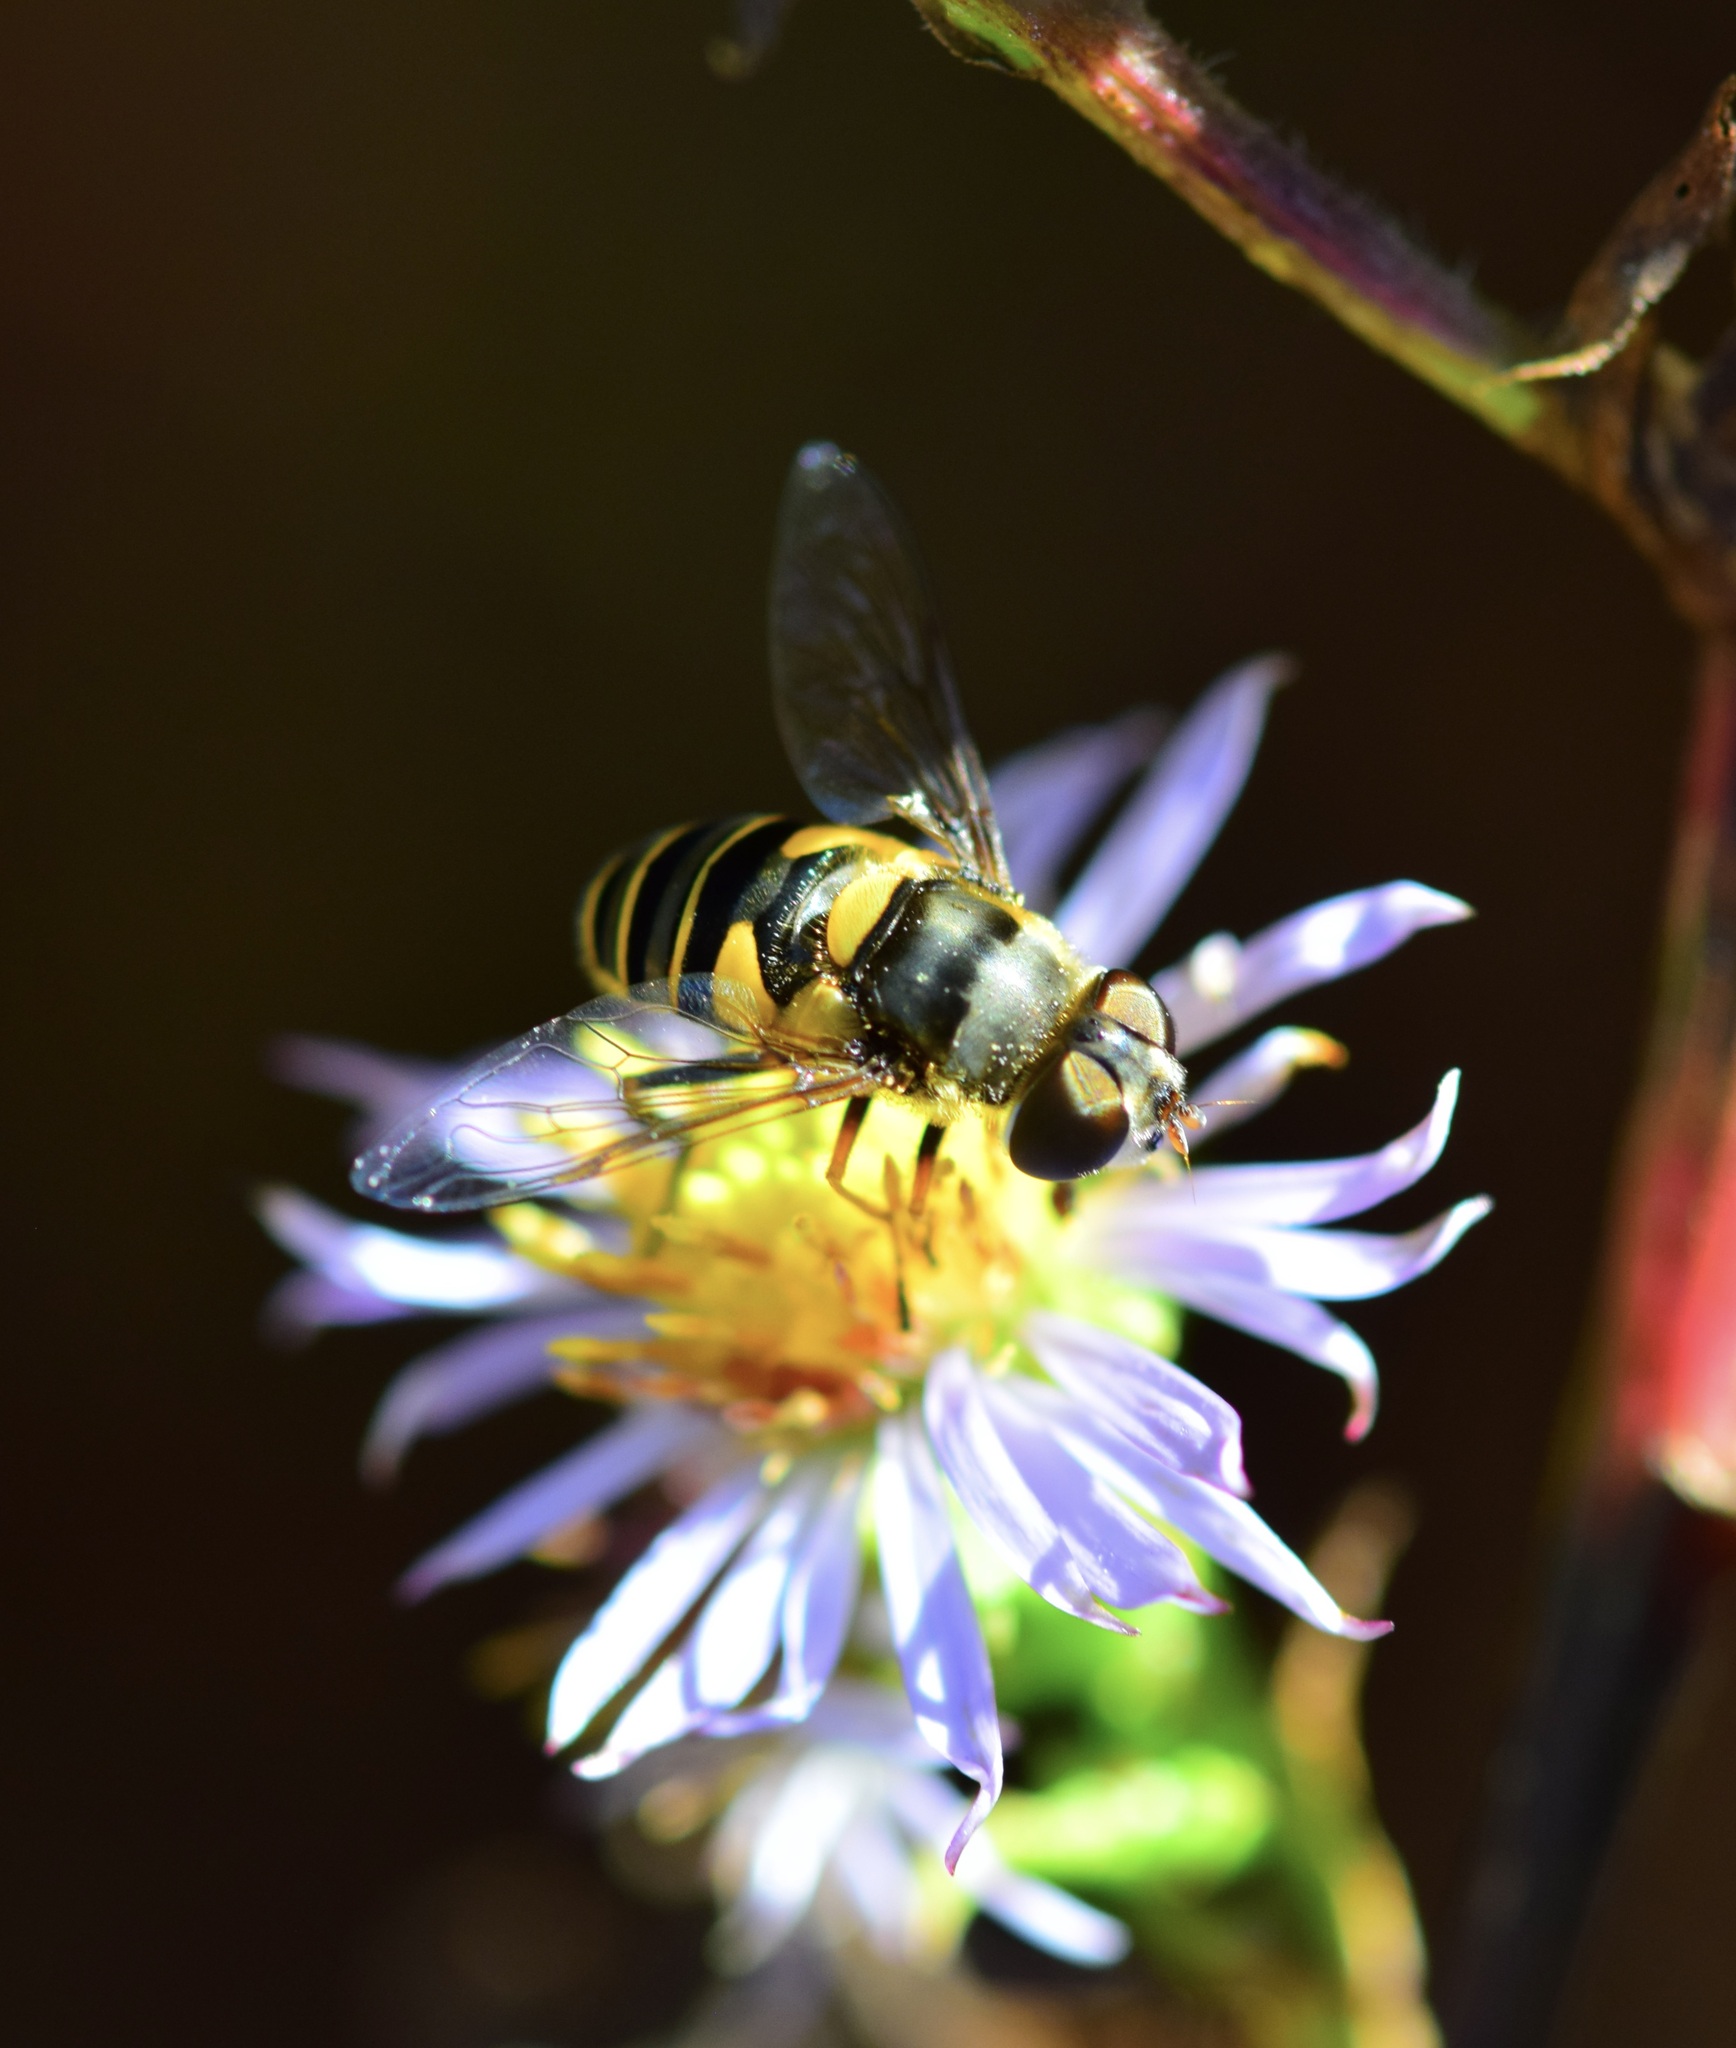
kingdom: Animalia
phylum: Arthropoda
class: Insecta
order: Diptera
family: Syrphidae
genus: Eristalis
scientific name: Eristalis transversa
